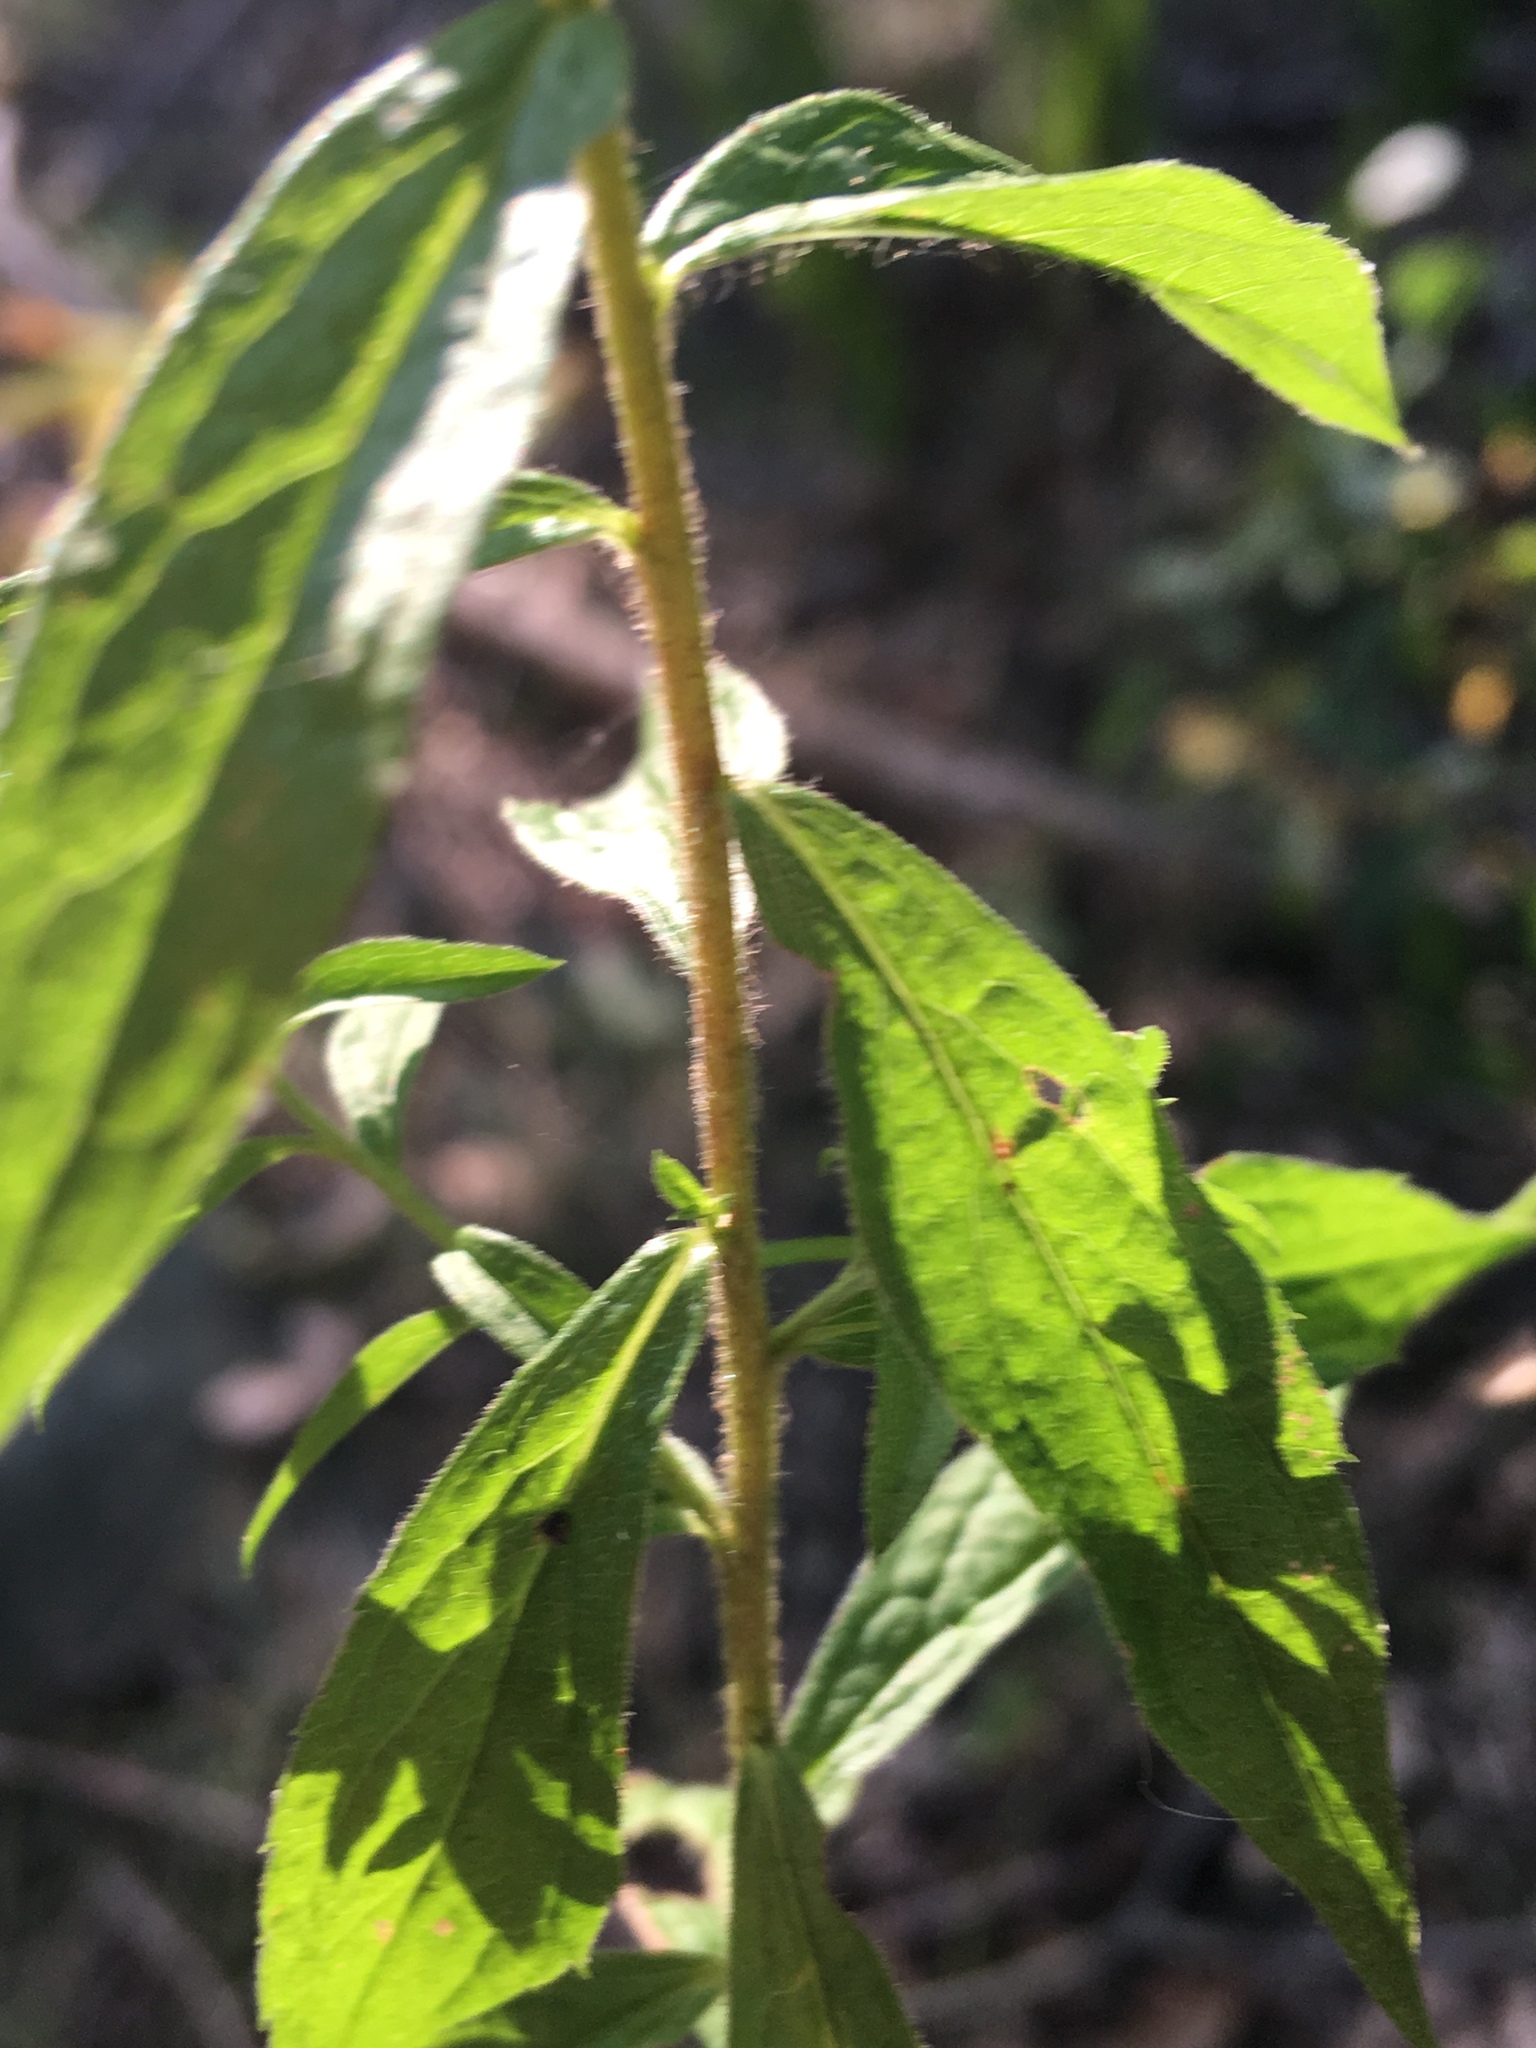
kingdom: Plantae
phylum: Tracheophyta
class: Magnoliopsida
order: Asterales
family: Asteraceae
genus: Solidago
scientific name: Solidago rugosa
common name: Rough-stemmed goldenrod
